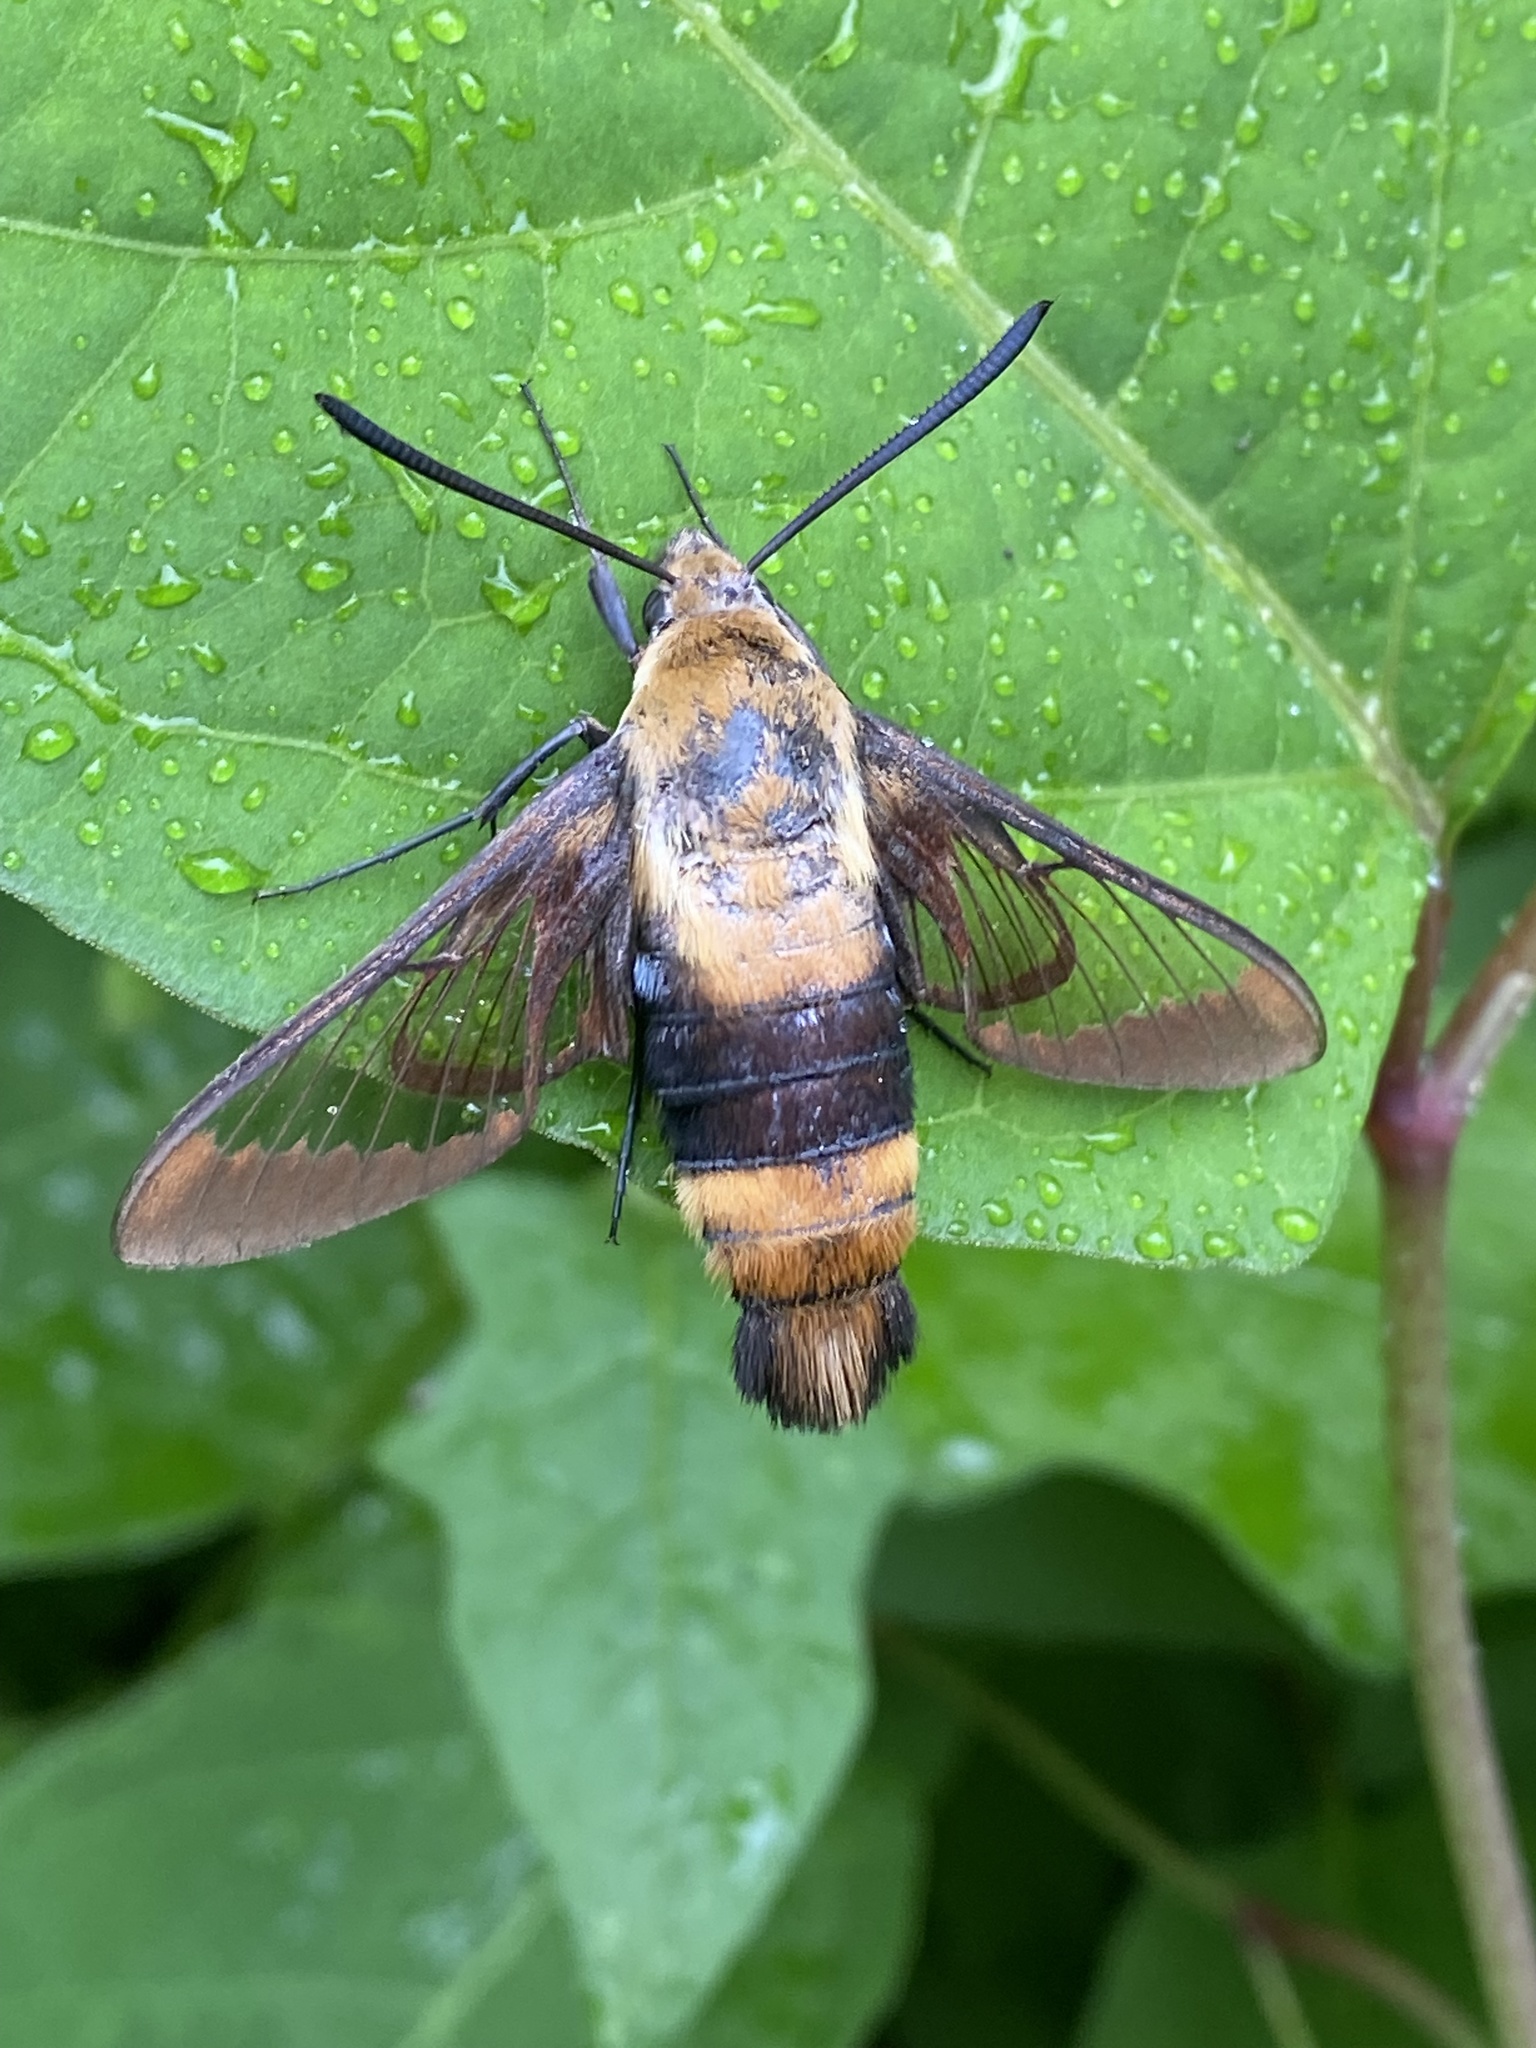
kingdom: Animalia
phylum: Arthropoda
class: Insecta
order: Lepidoptera
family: Sphingidae
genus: Hemaris
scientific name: Hemaris diffinis
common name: Bumblebee moth
